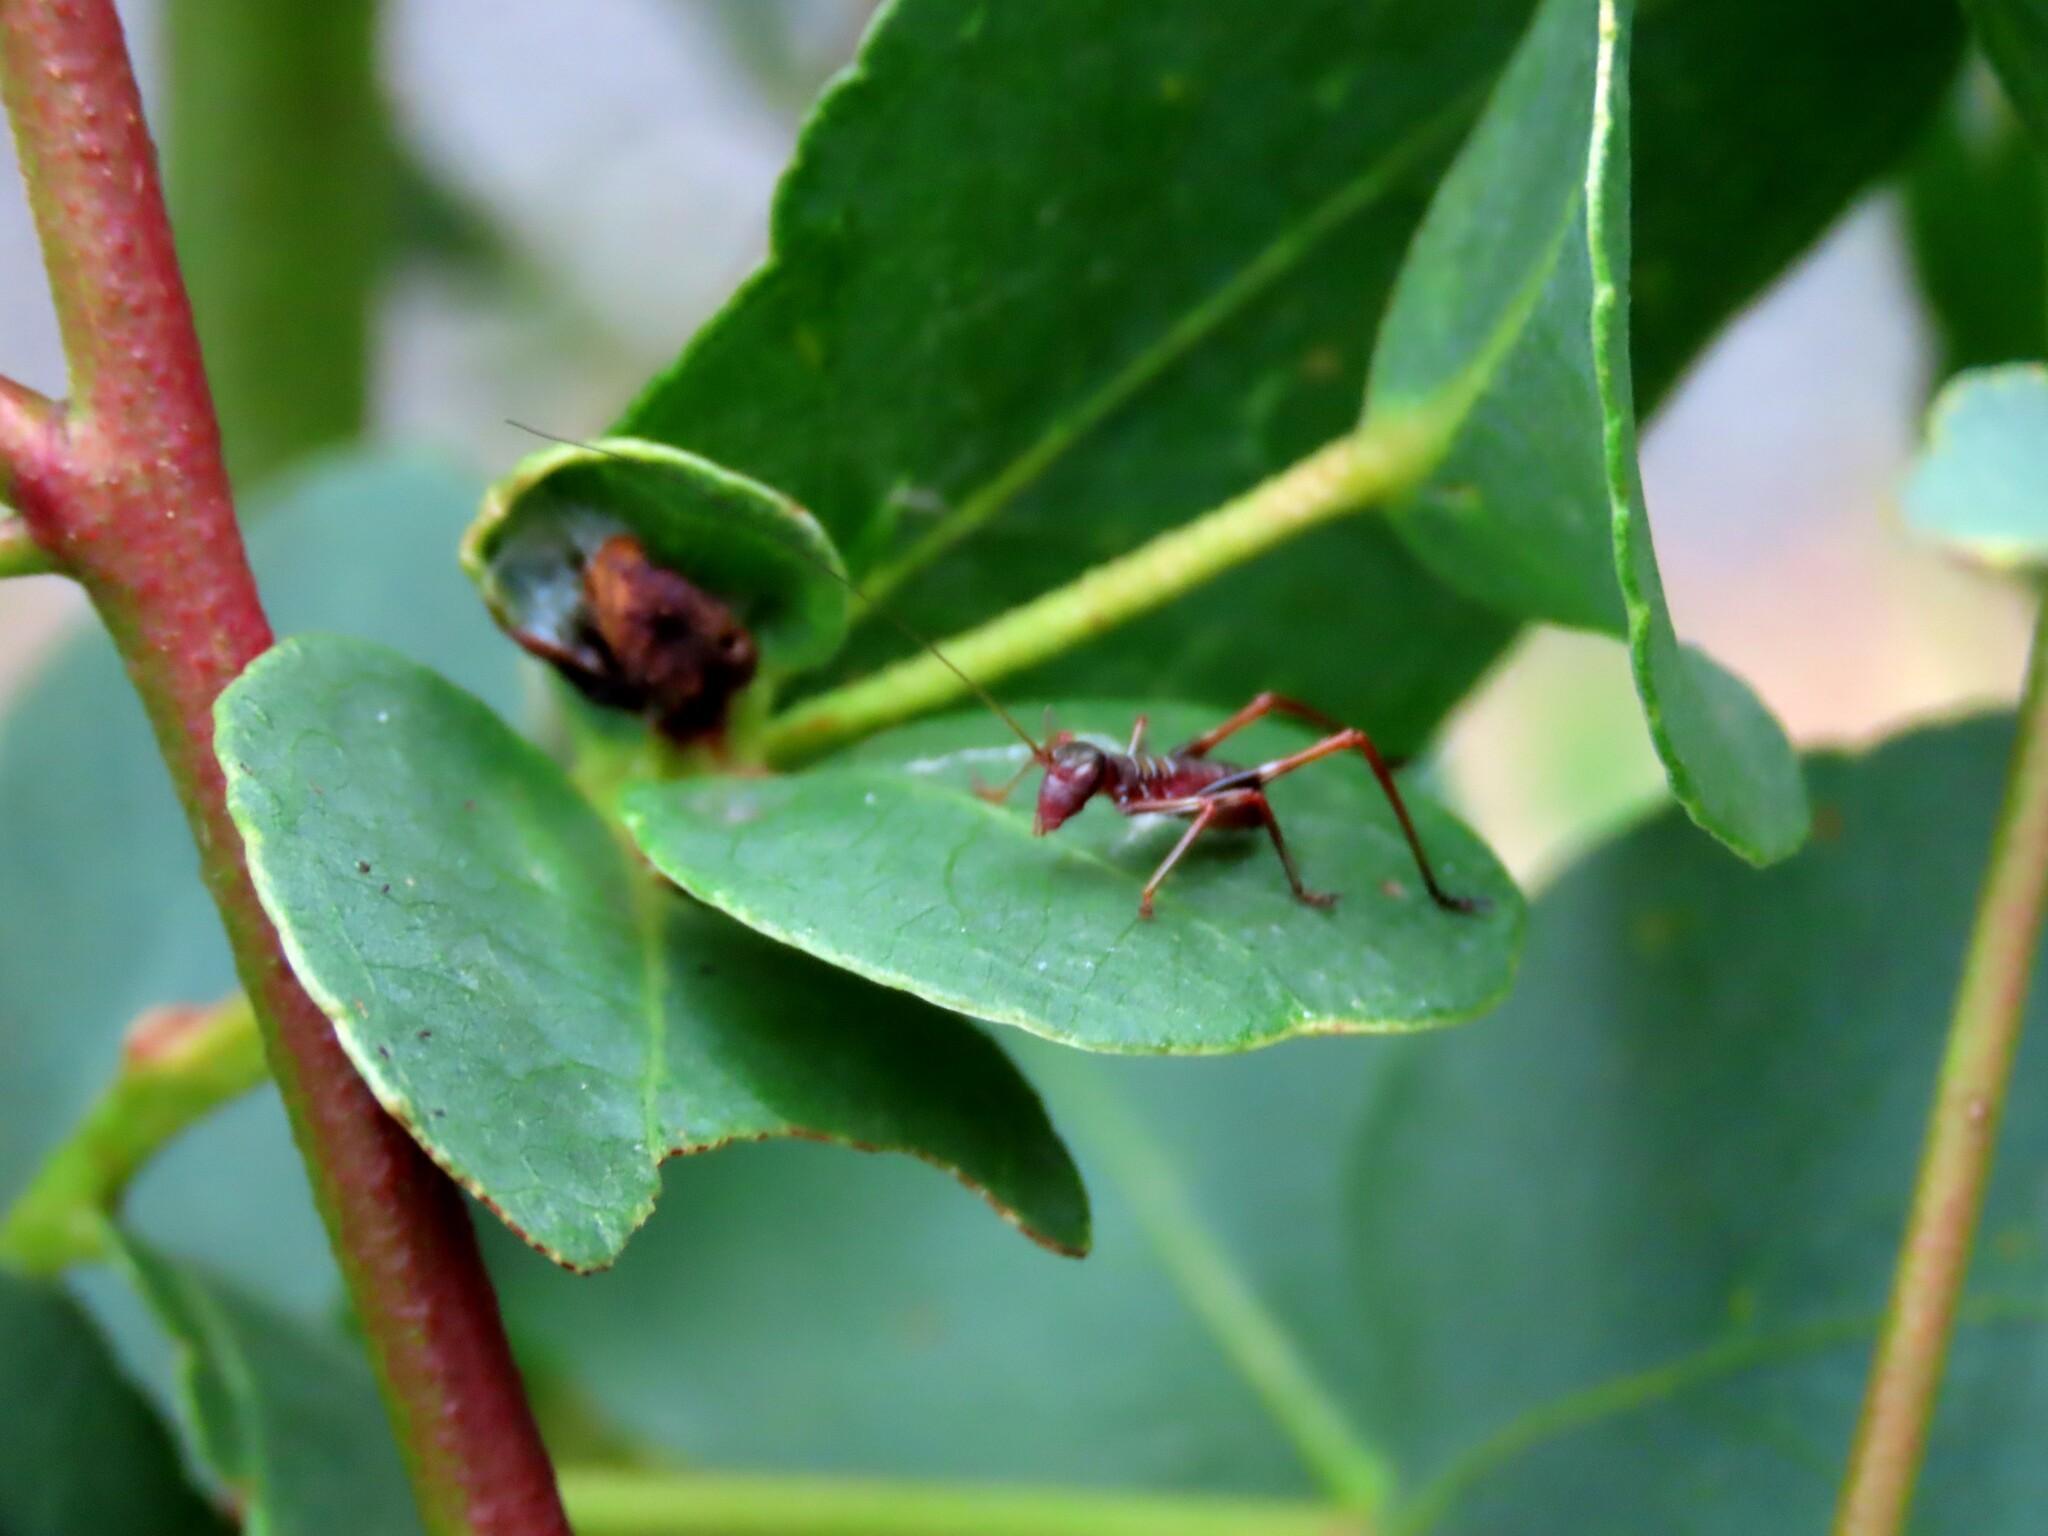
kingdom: Animalia
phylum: Arthropoda
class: Insecta
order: Orthoptera
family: Tettigoniidae
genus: Torbia
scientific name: Torbia viridissima
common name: Non-predaceous gum leaf katydid
